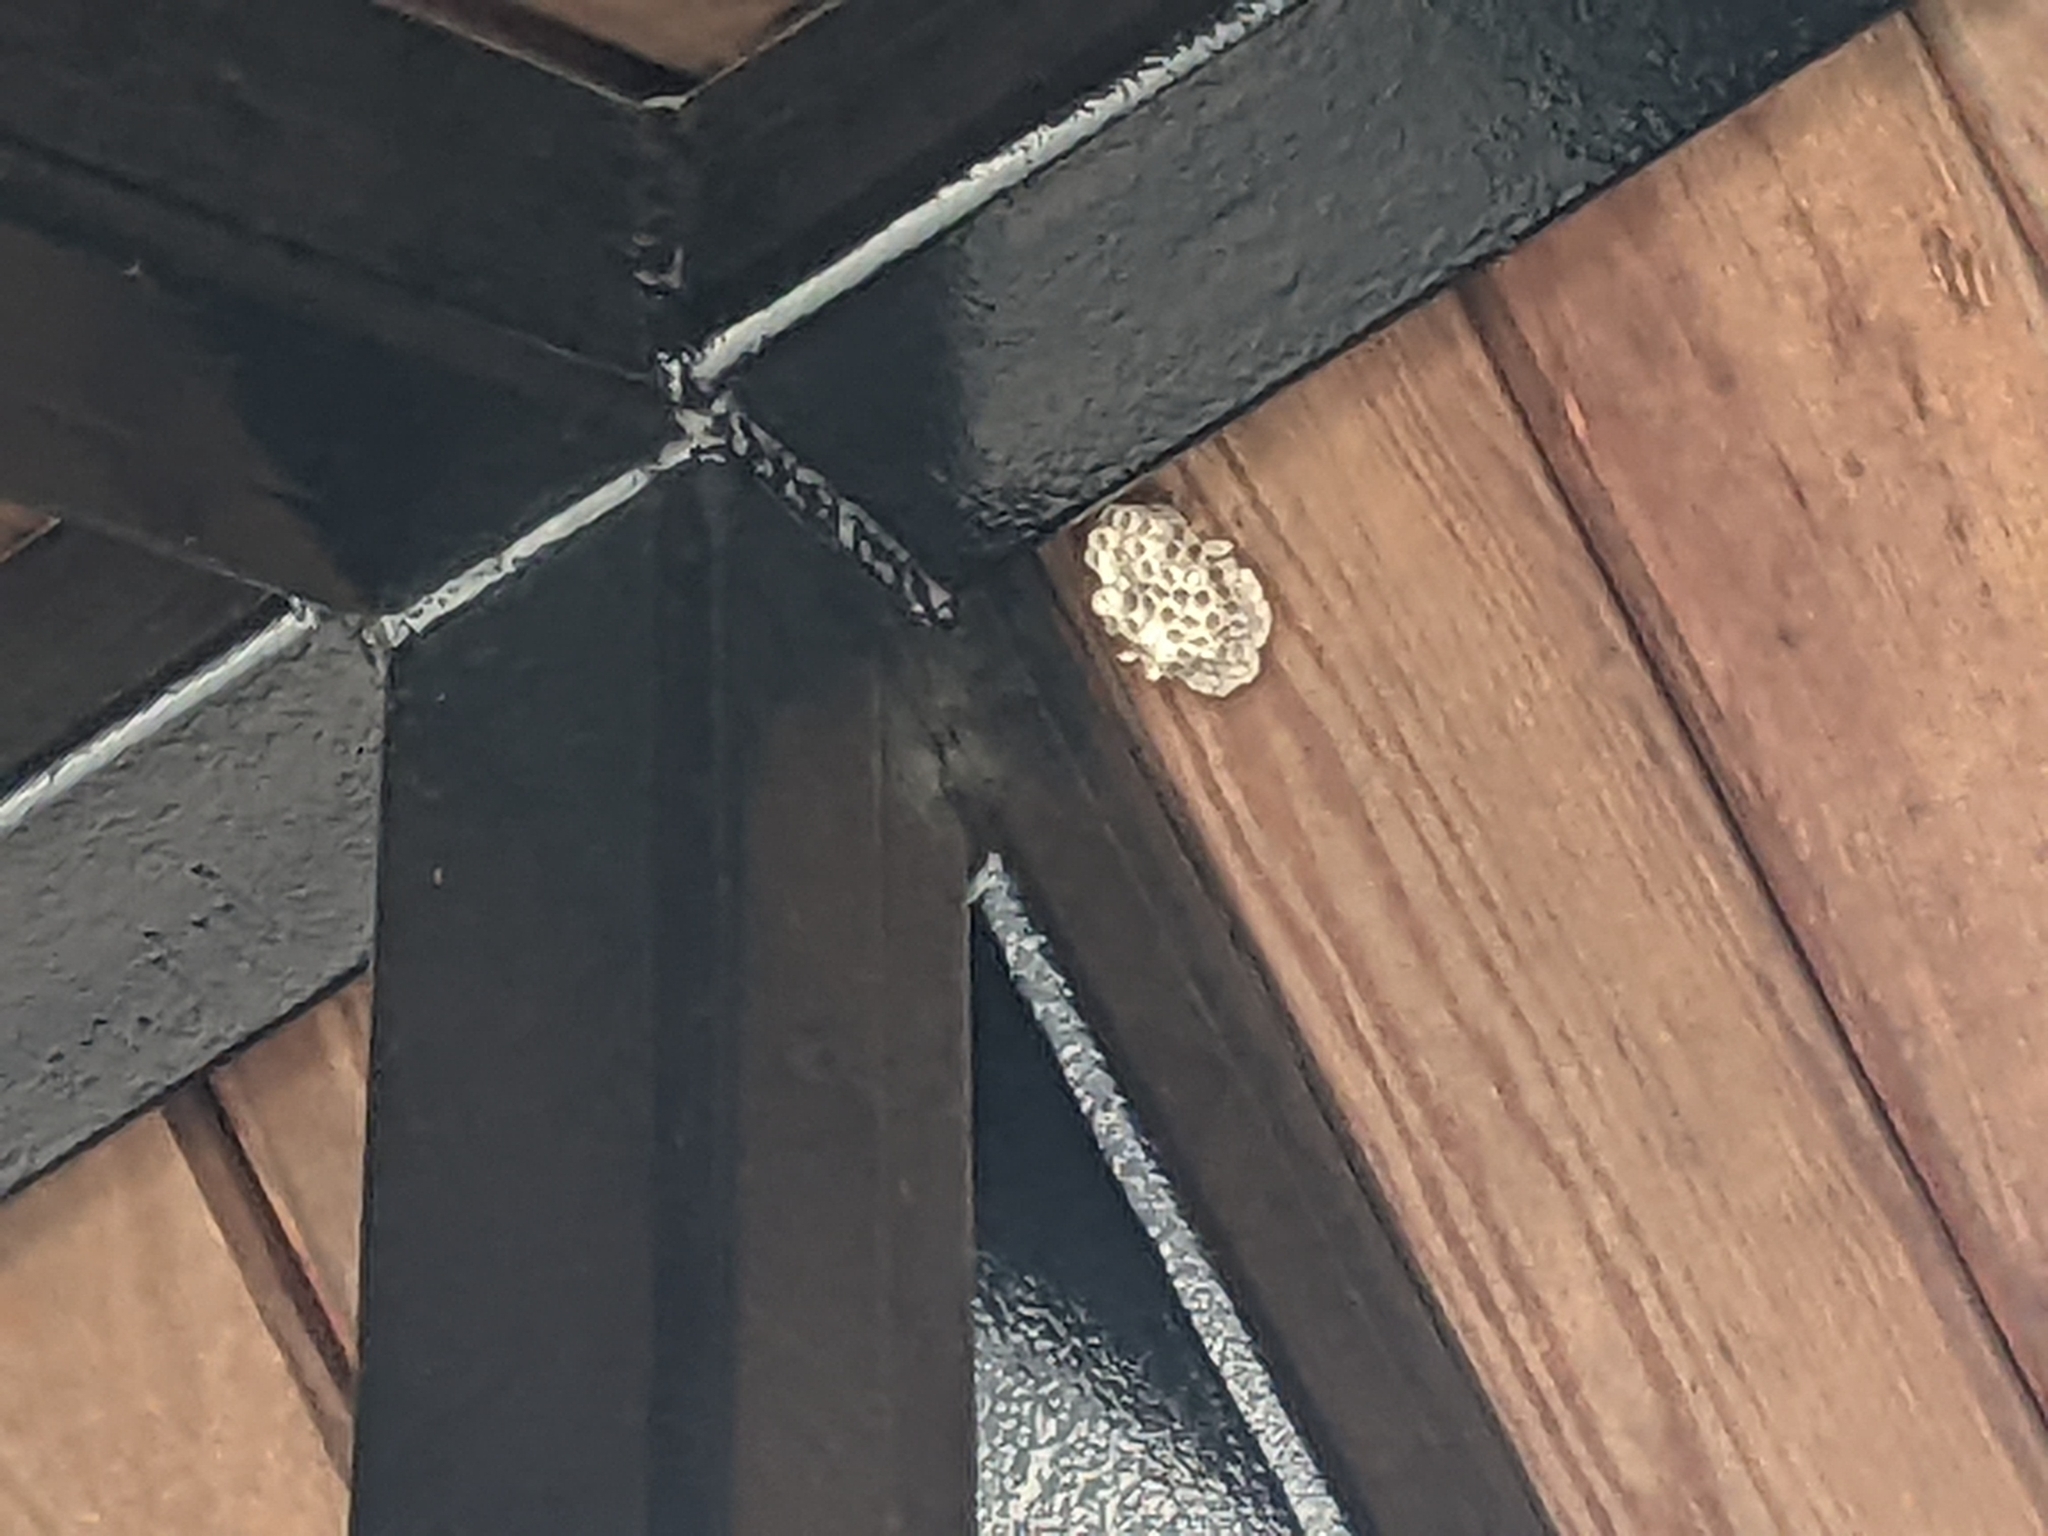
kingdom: Animalia
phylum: Arthropoda
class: Insecta
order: Hymenoptera
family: Eumenidae
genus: Polistes
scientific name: Polistes
